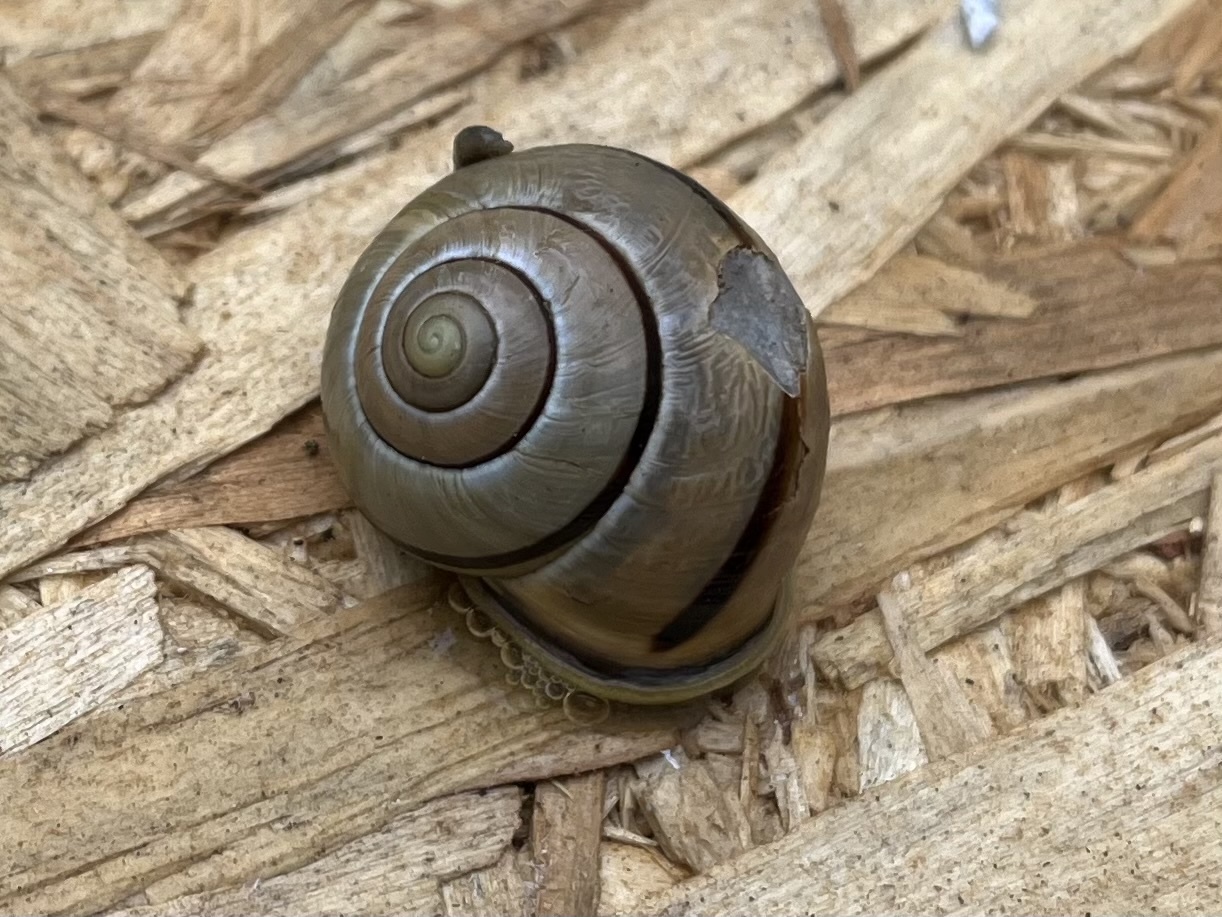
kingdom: Animalia
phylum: Mollusca
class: Gastropoda
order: Stylommatophora
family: Helicidae
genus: Cepaea
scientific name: Cepaea nemoralis
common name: Grovesnail
